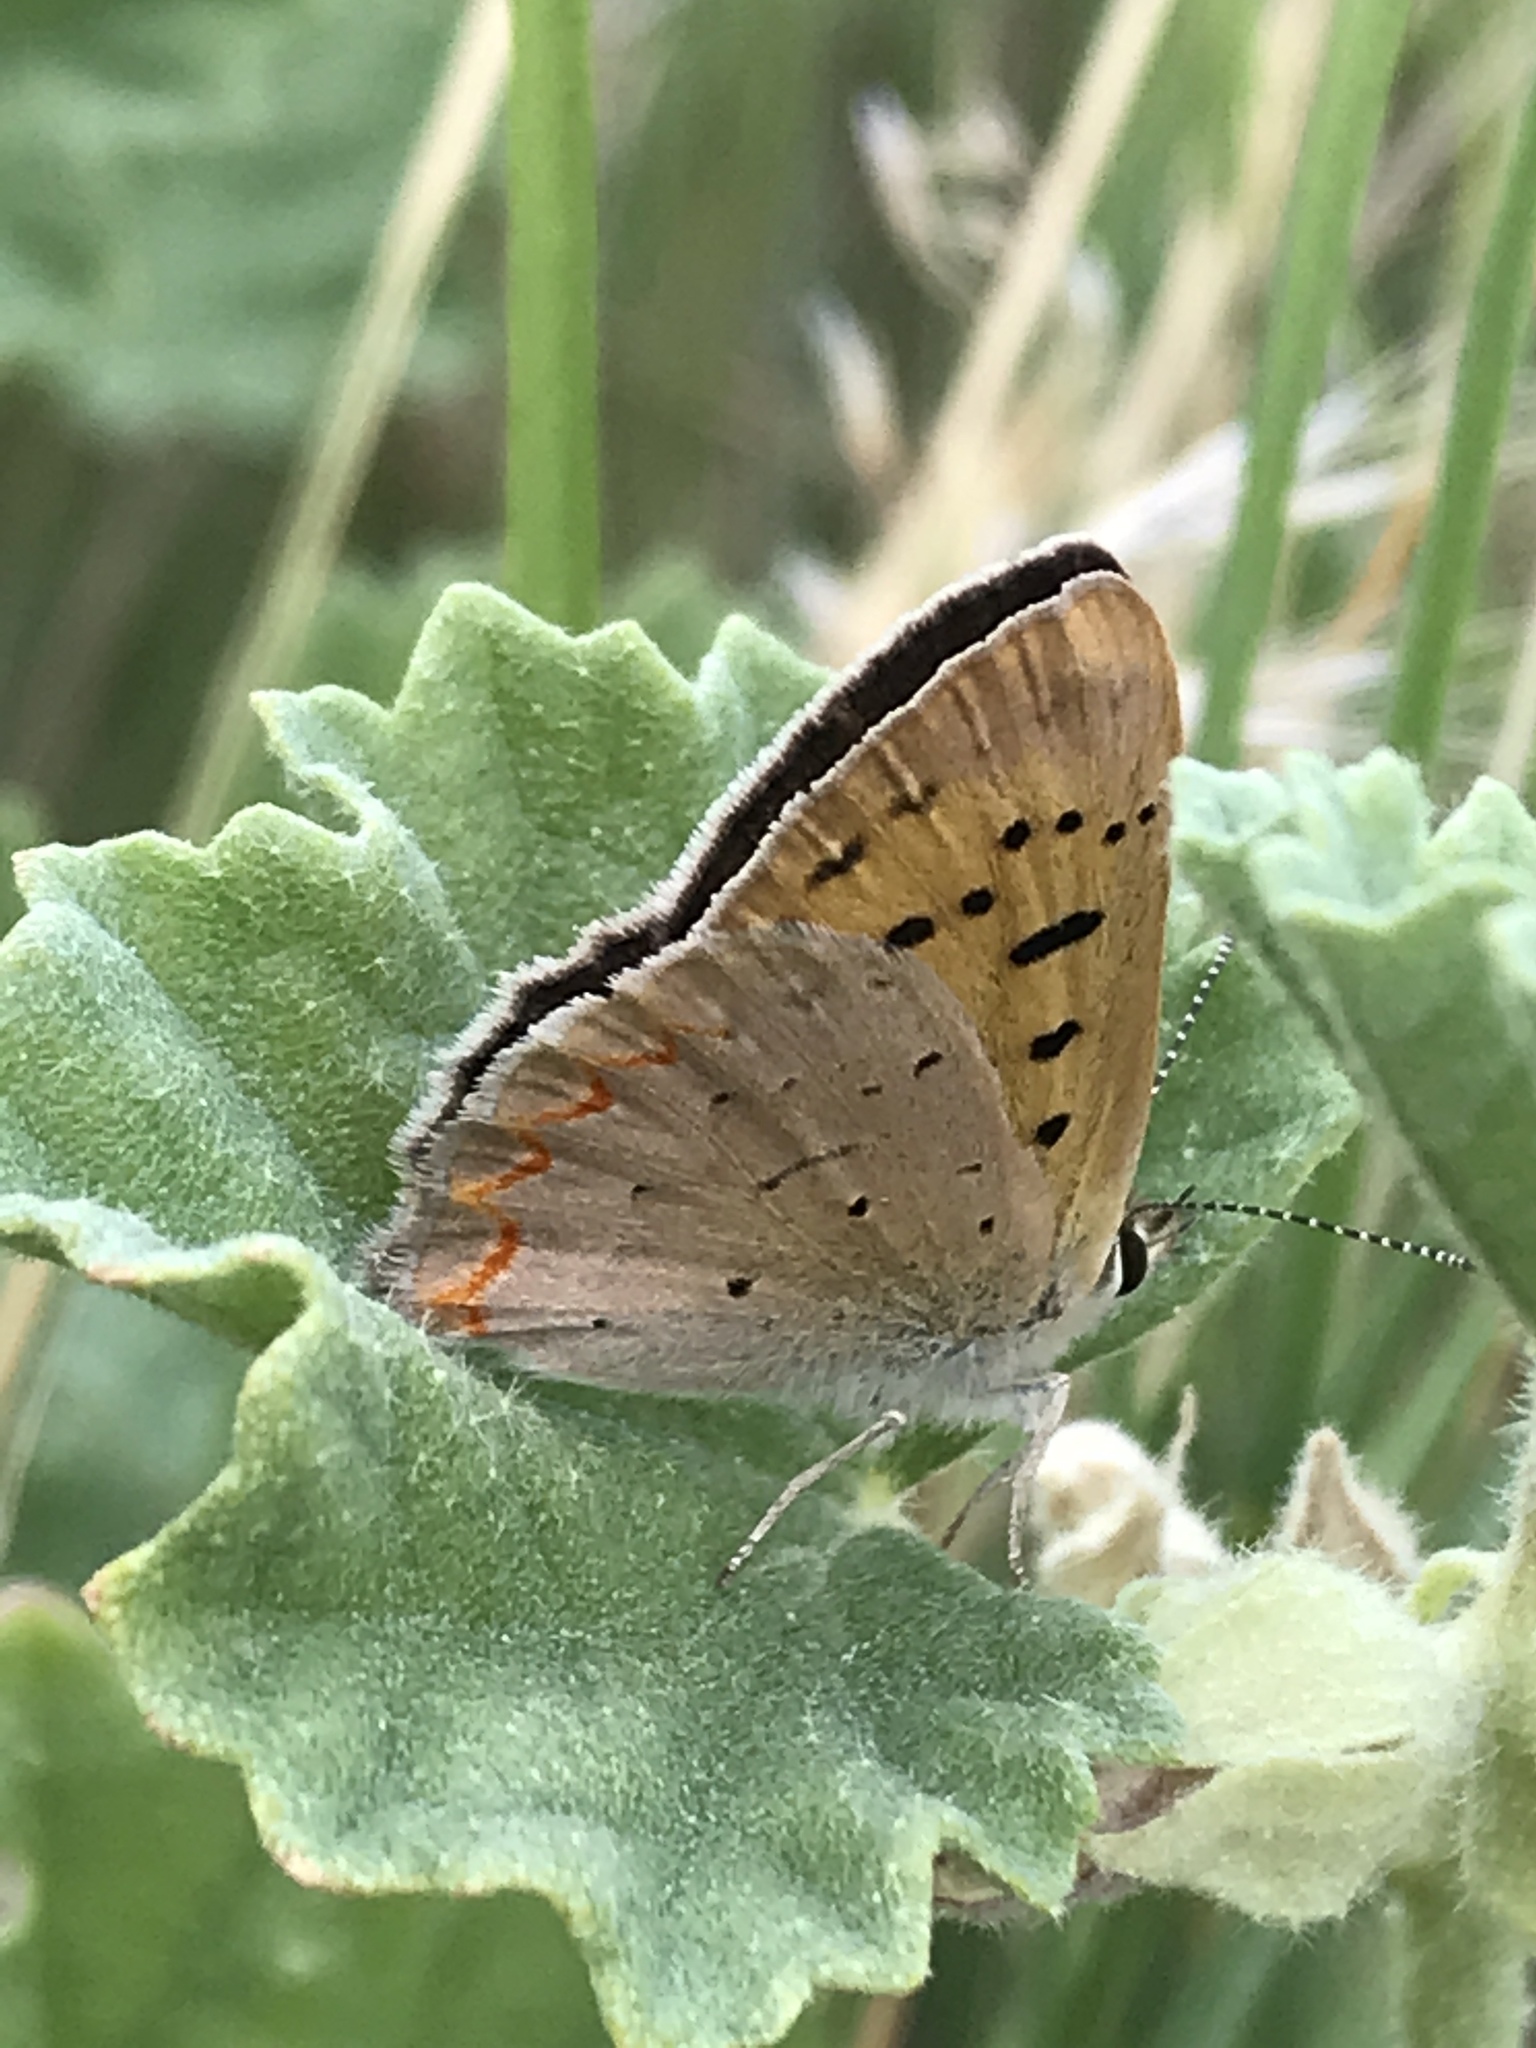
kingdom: Animalia
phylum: Arthropoda
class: Insecta
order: Lepidoptera
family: Lycaenidae
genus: Tharsalea
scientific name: Tharsalea helloides
